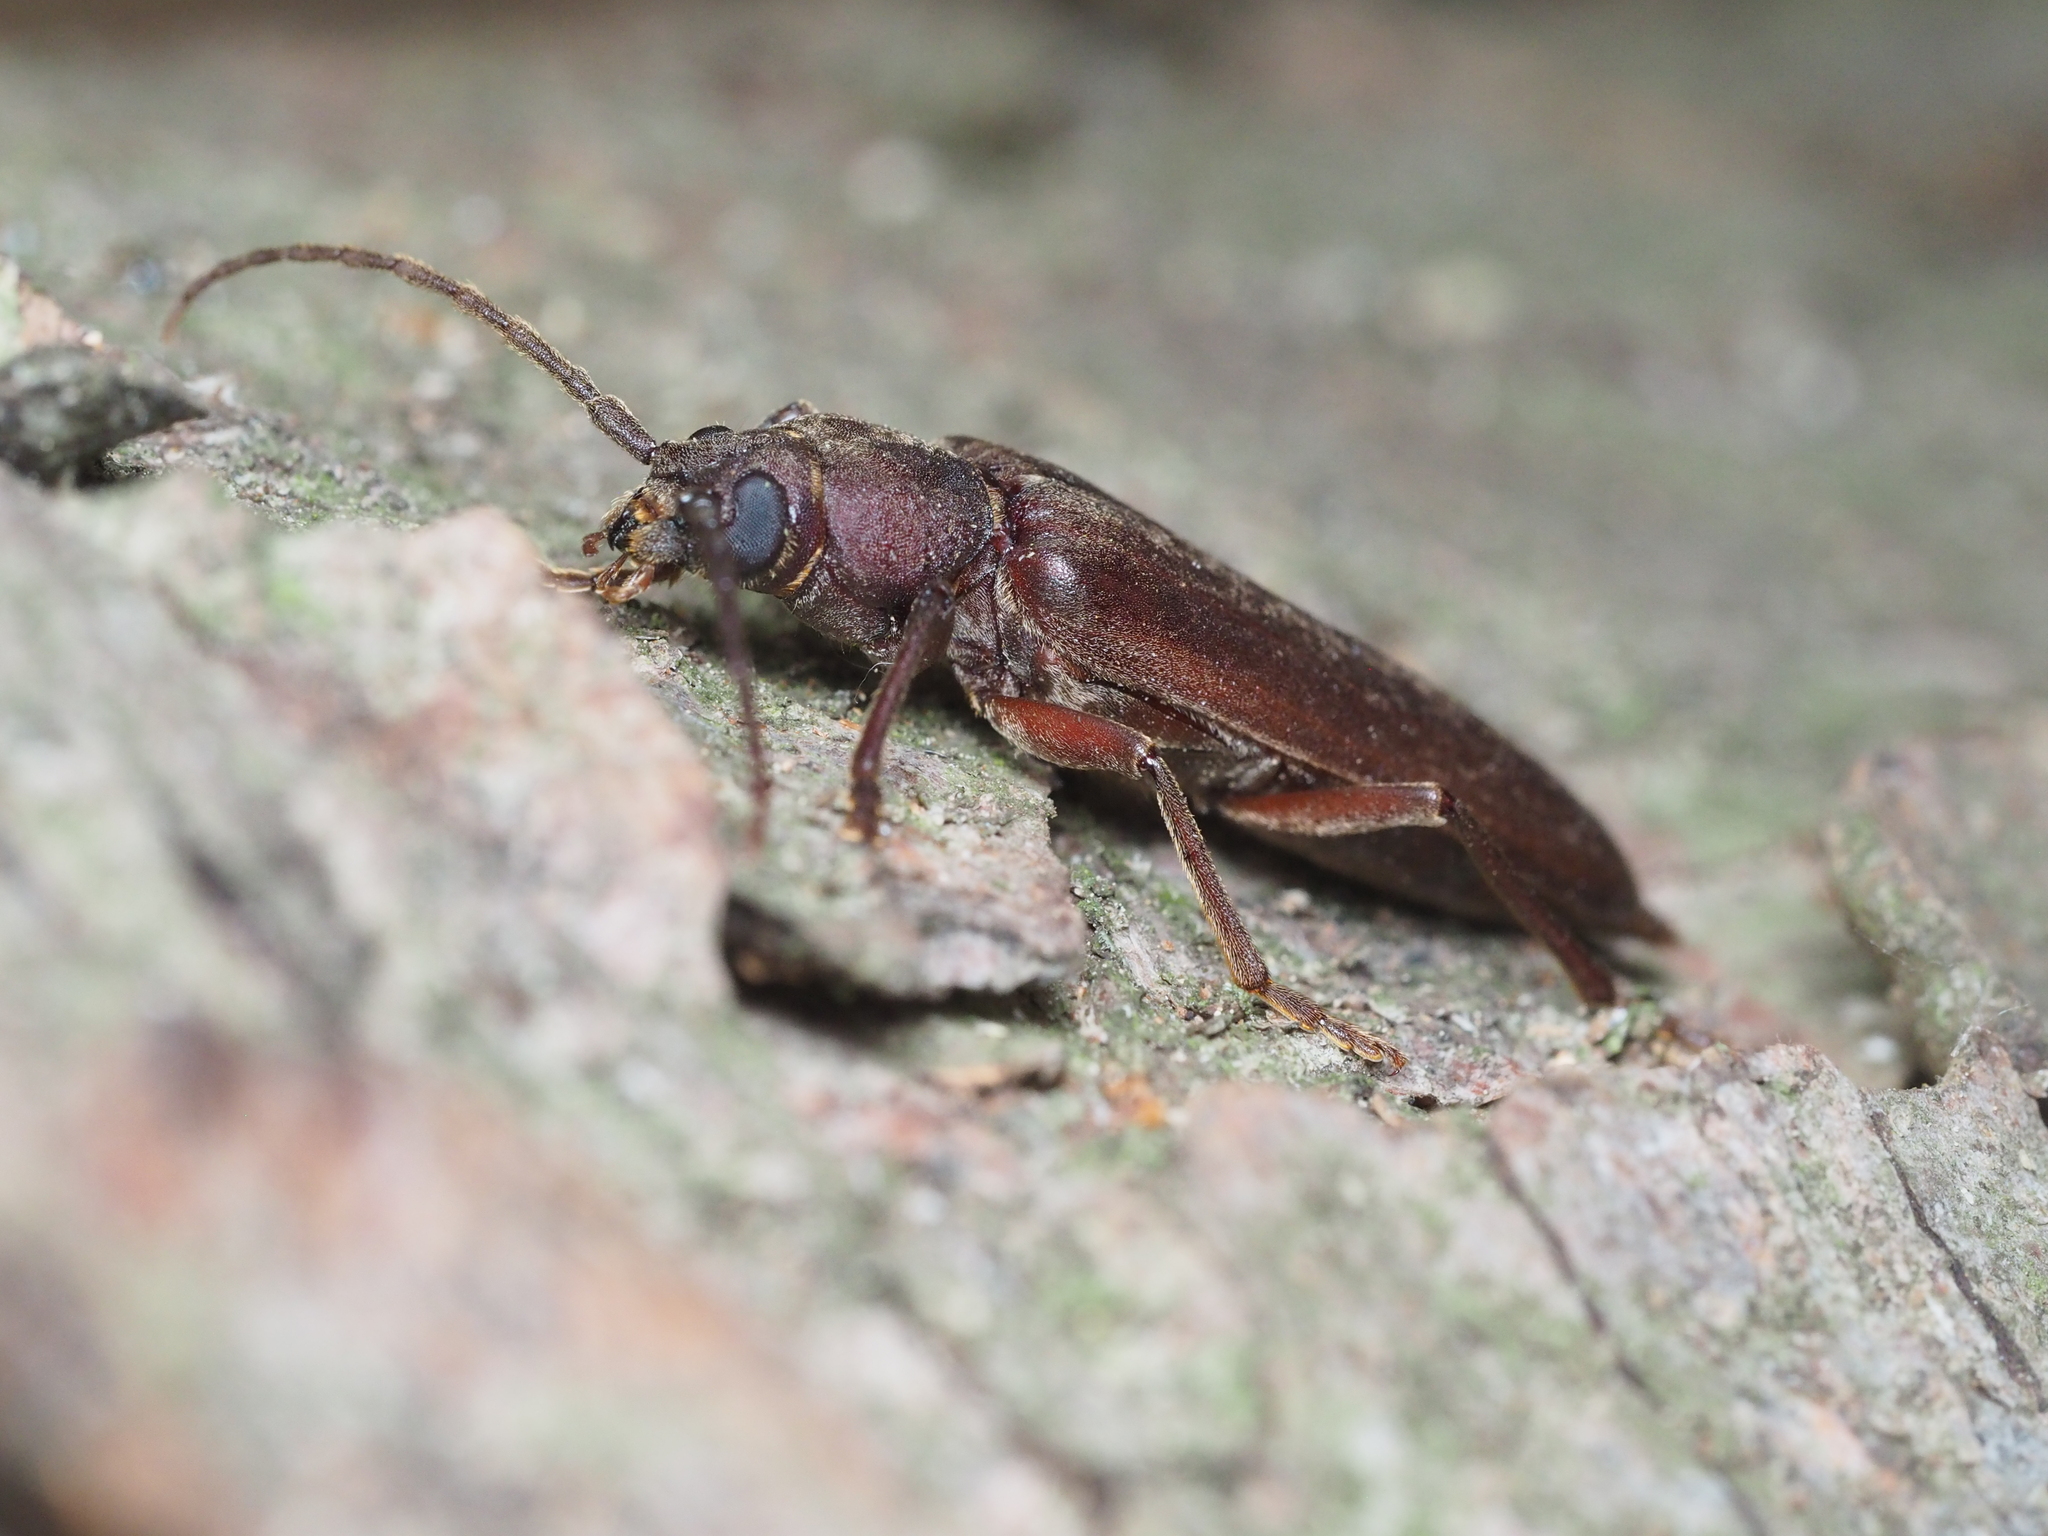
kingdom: Animalia
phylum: Arthropoda
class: Insecta
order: Coleoptera
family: Cerambycidae
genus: Arhopalus
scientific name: Arhopalus rusticus
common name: Rust pine borer
